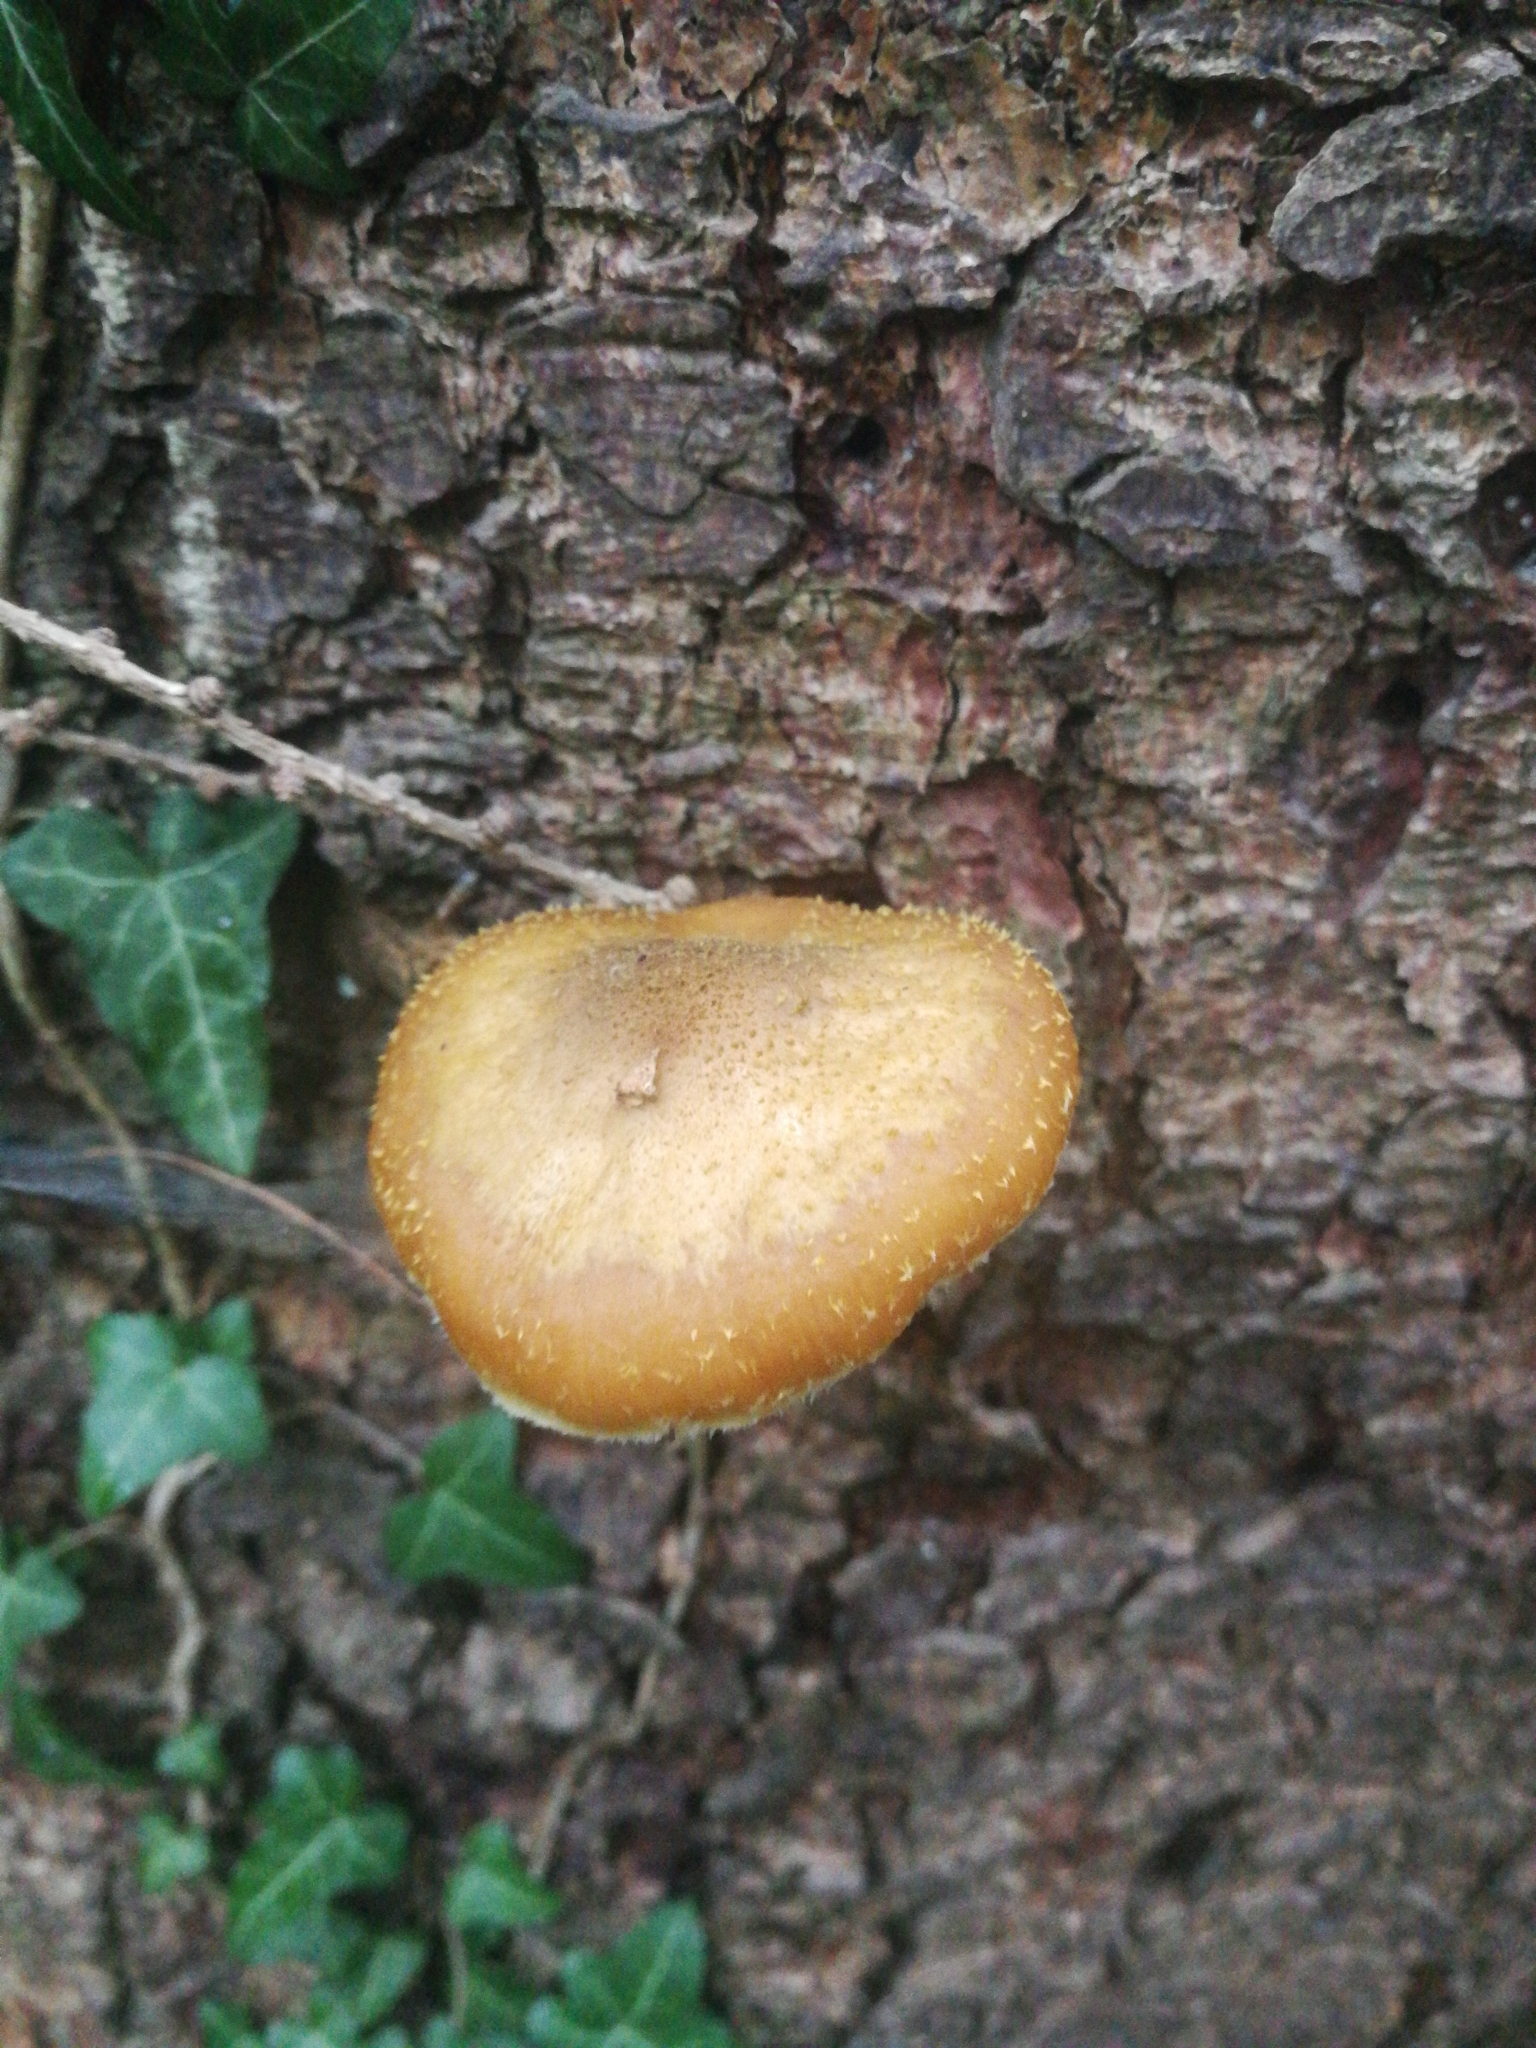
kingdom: Fungi
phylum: Basidiomycota
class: Agaricomycetes
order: Agaricales
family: Physalacriaceae
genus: Armillaria
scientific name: Armillaria gallica
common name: Bulbous honey fungus
